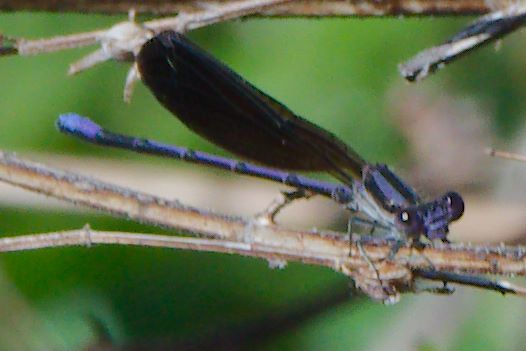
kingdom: Animalia
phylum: Arthropoda
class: Insecta
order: Odonata
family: Coenagrionidae
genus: Argia
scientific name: Argia fumipennis
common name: Variable dancer
